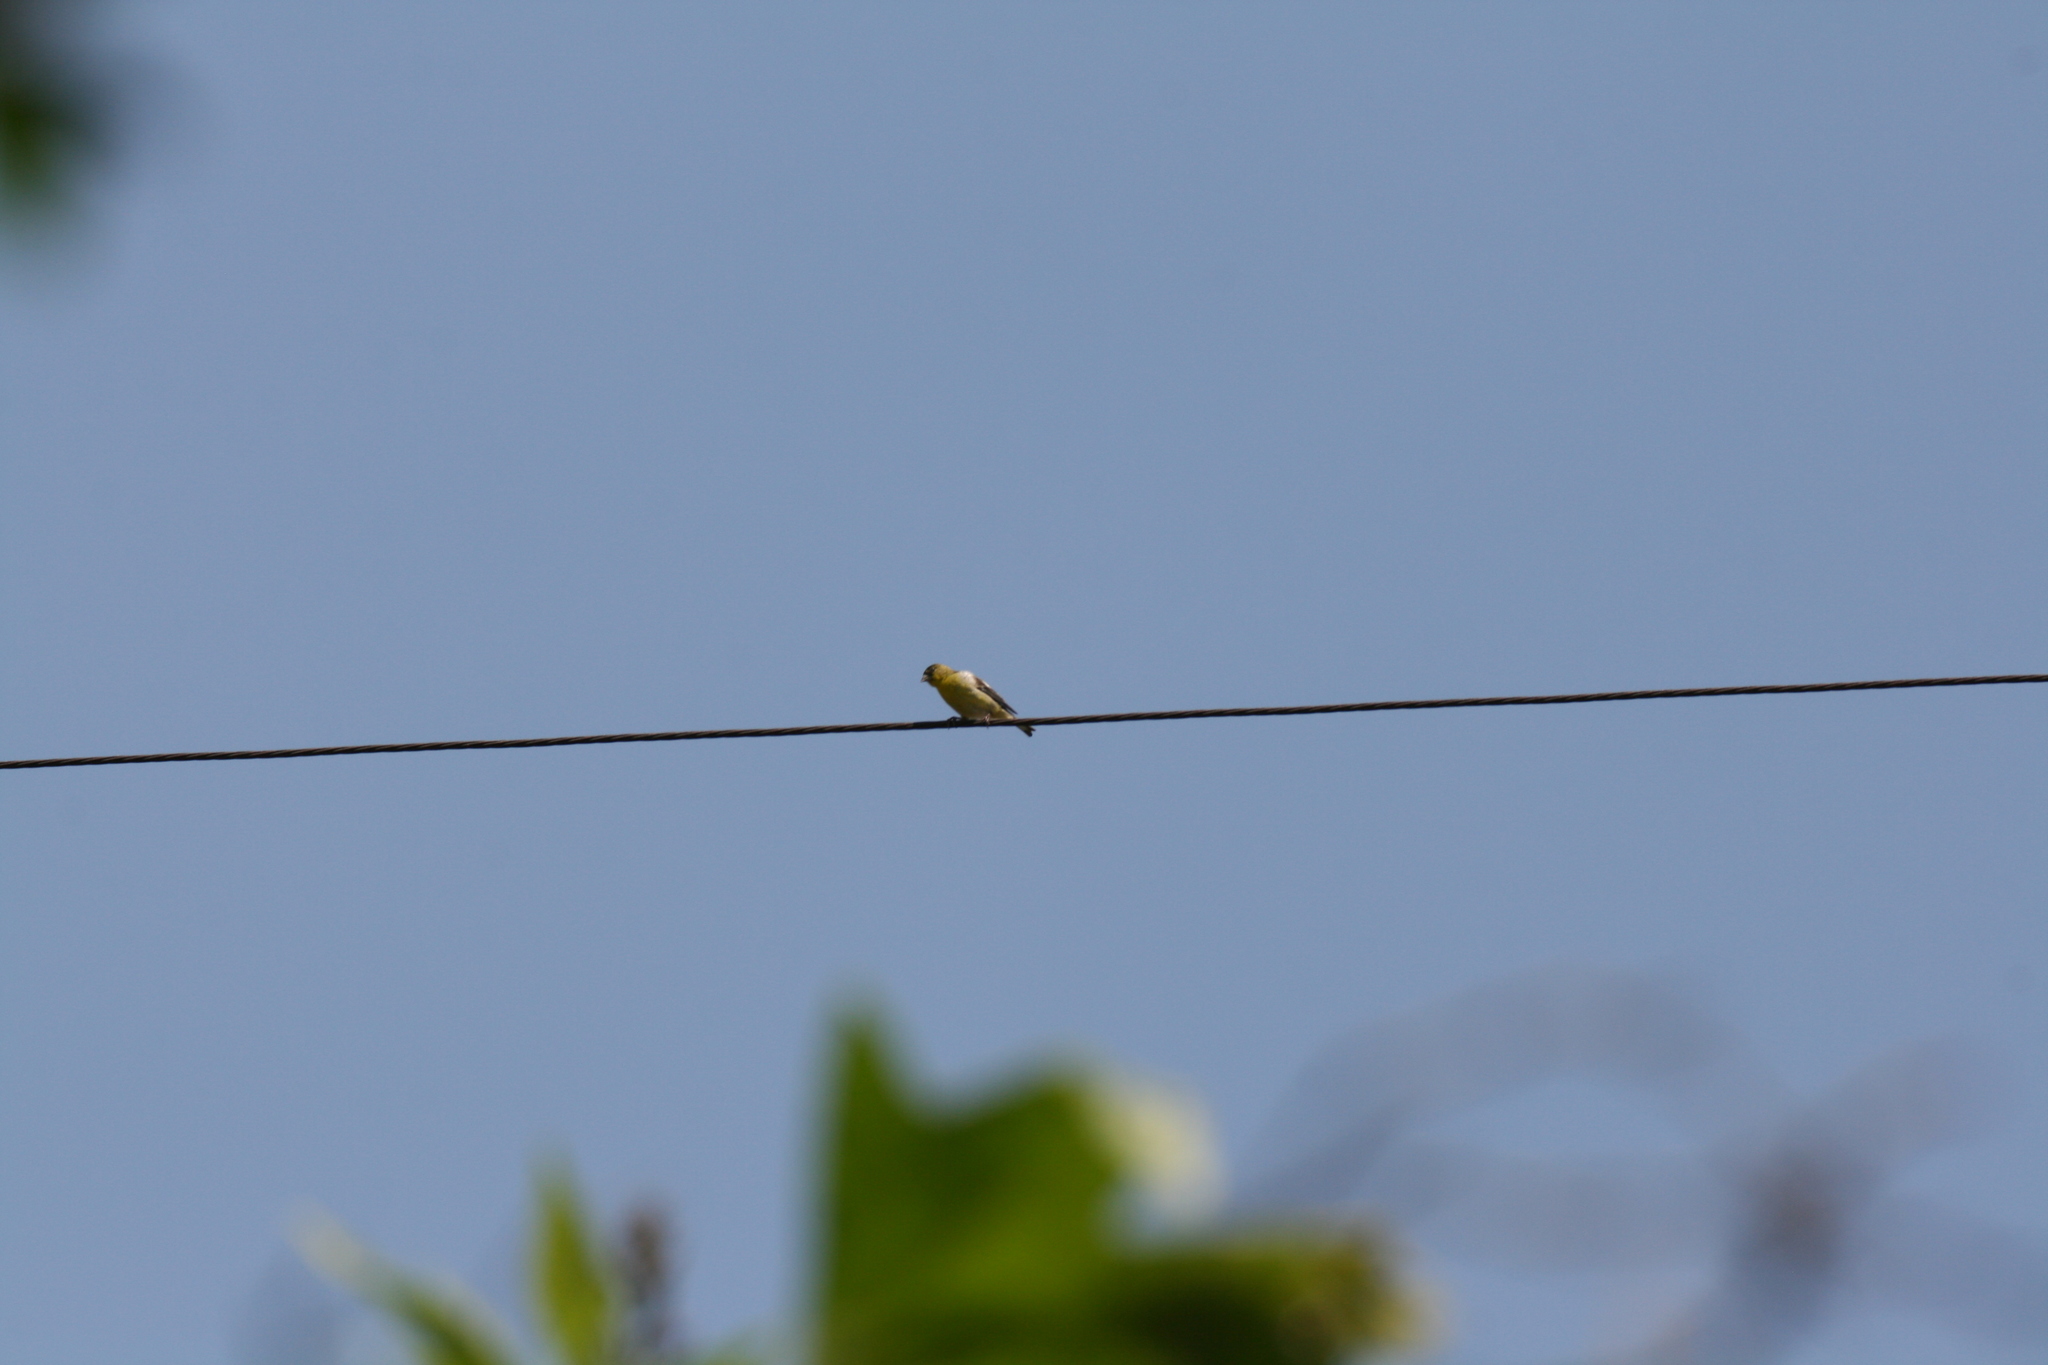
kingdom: Animalia
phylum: Chordata
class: Aves
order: Passeriformes
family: Fringillidae
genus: Spinus
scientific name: Spinus psaltria
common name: Lesser goldfinch
